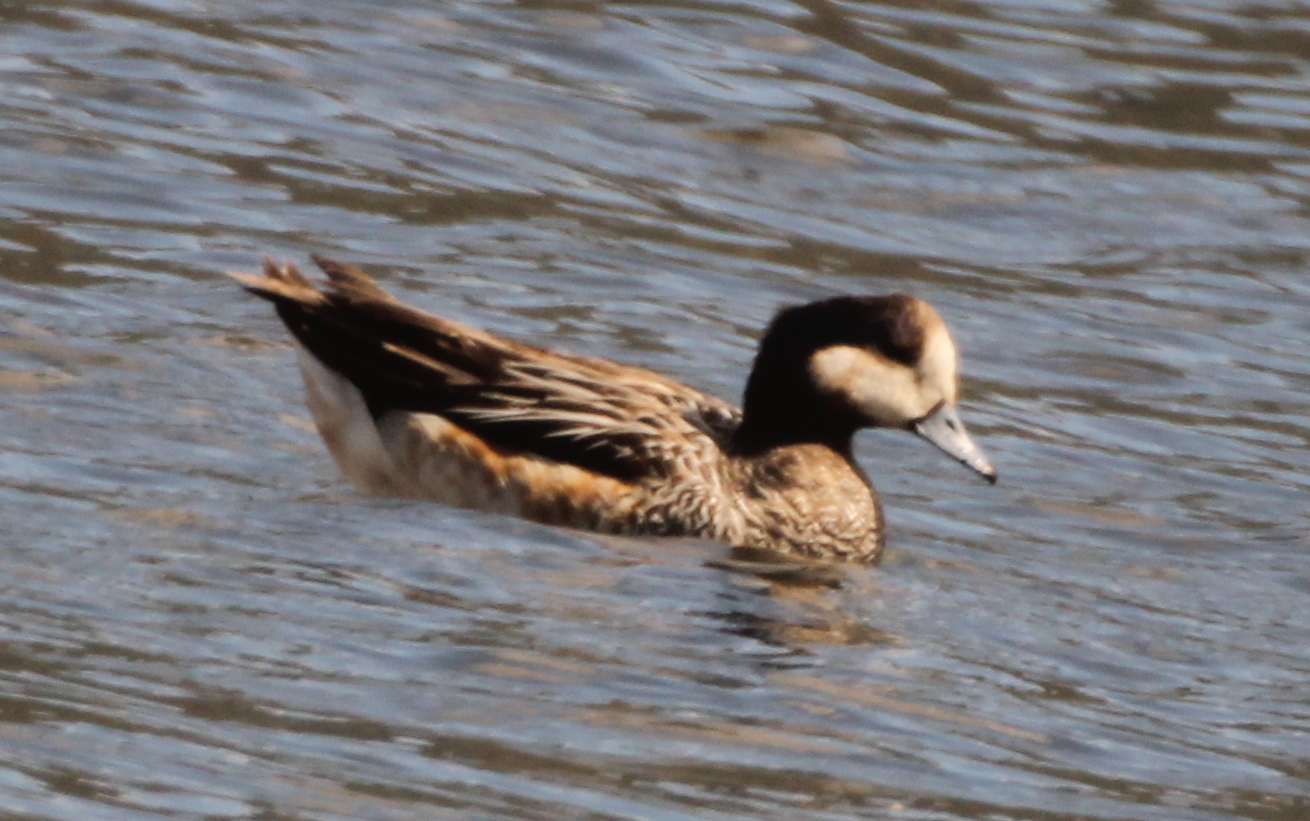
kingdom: Animalia
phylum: Chordata
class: Aves
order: Anseriformes
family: Anatidae
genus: Mareca
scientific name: Mareca sibilatrix
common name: Chiloe wigeon
